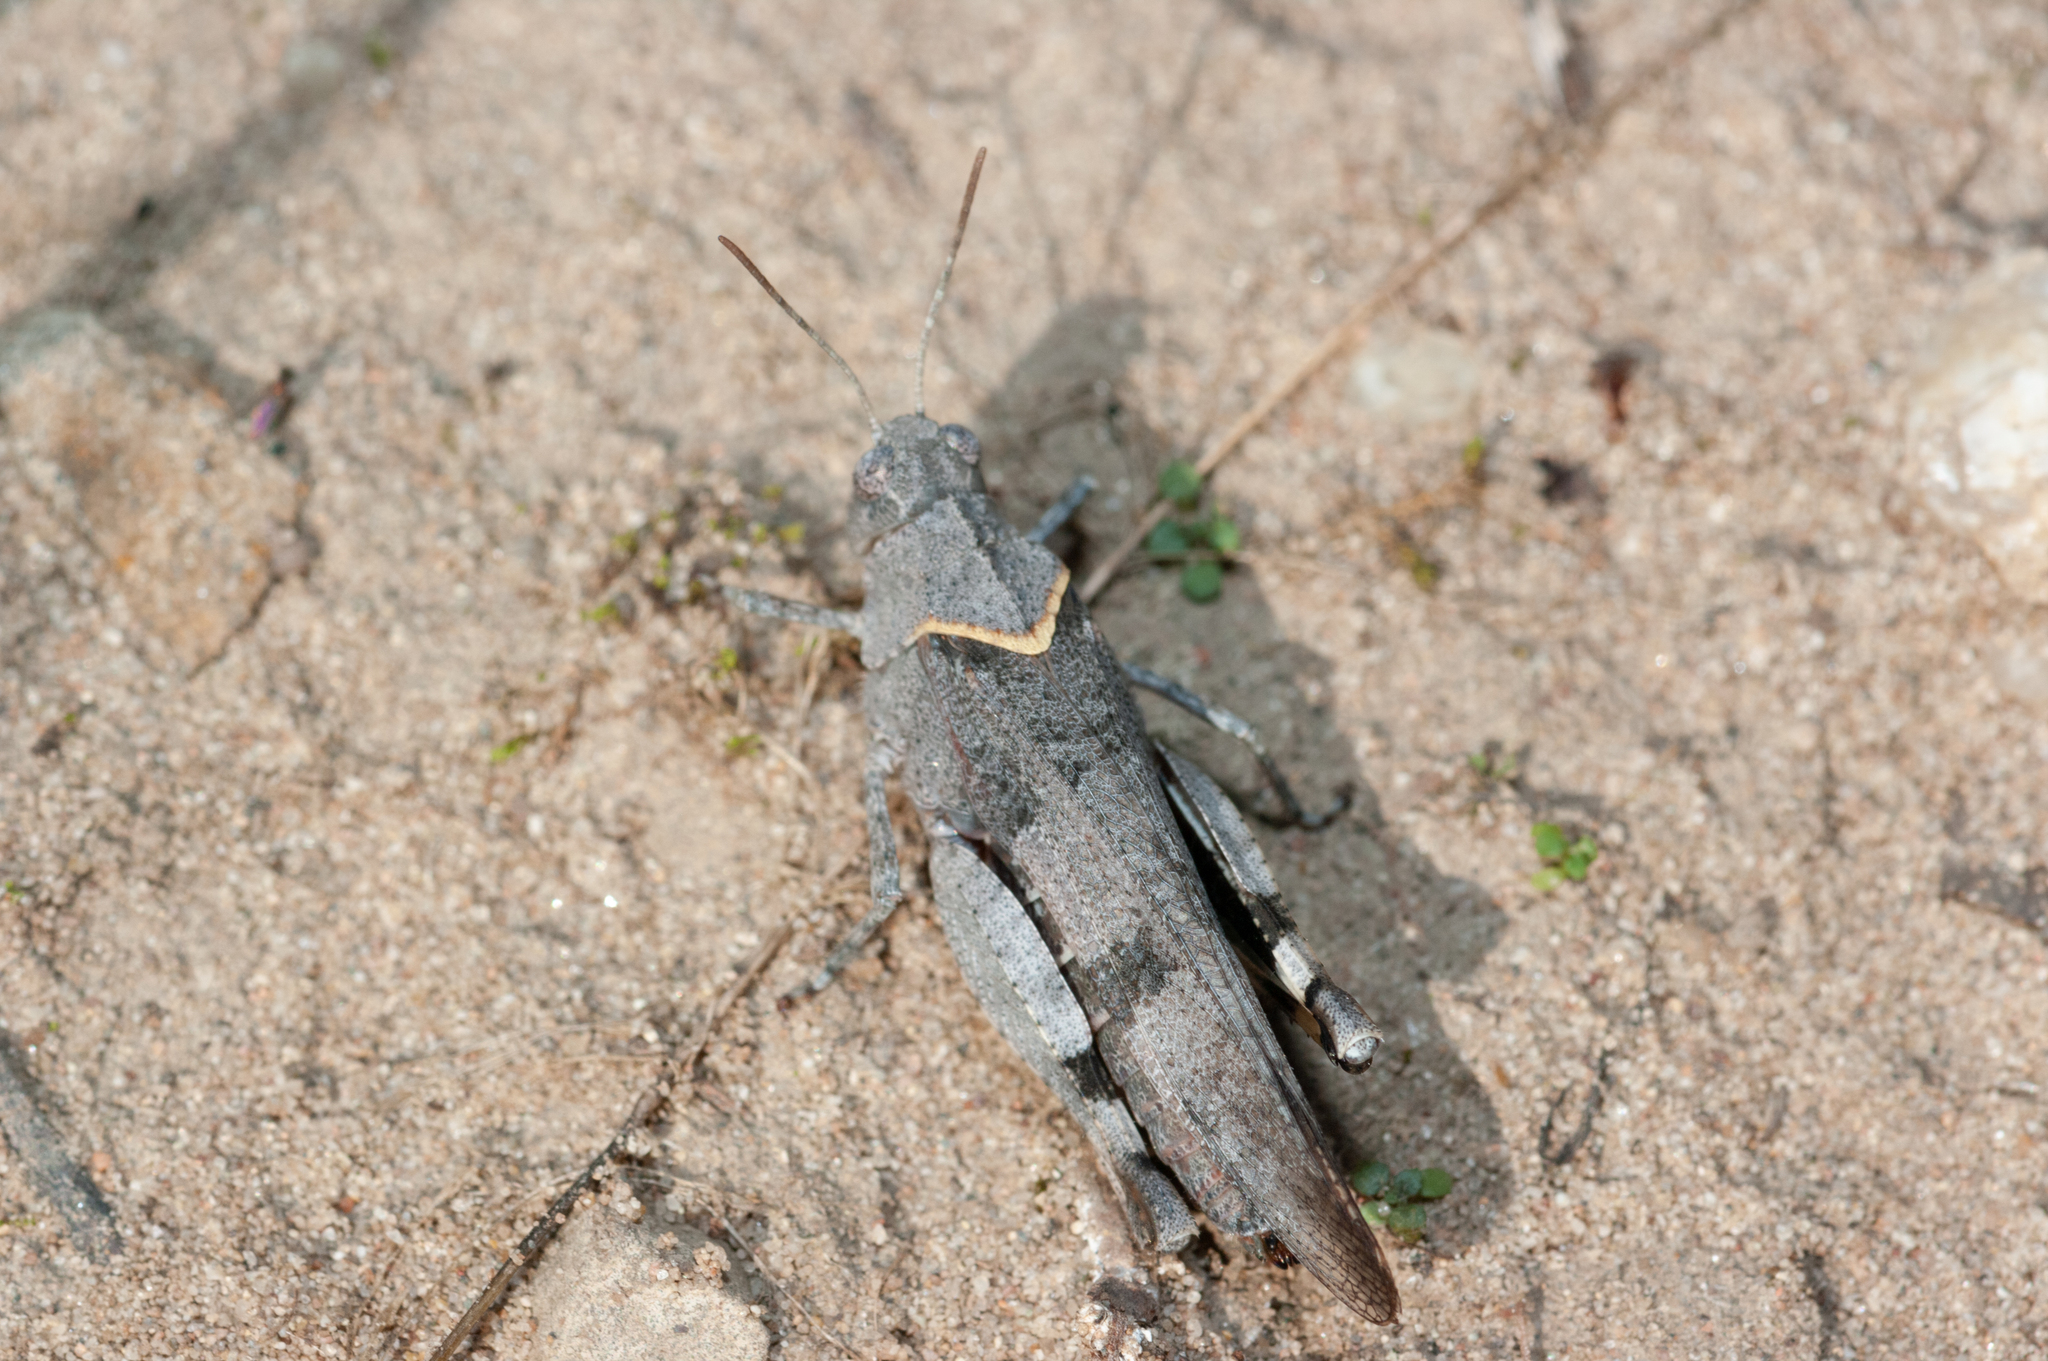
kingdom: Animalia
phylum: Arthropoda
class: Insecta
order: Orthoptera
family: Acrididae
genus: Oedipoda
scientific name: Oedipoda caerulescens
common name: Blue-winged grasshopper
